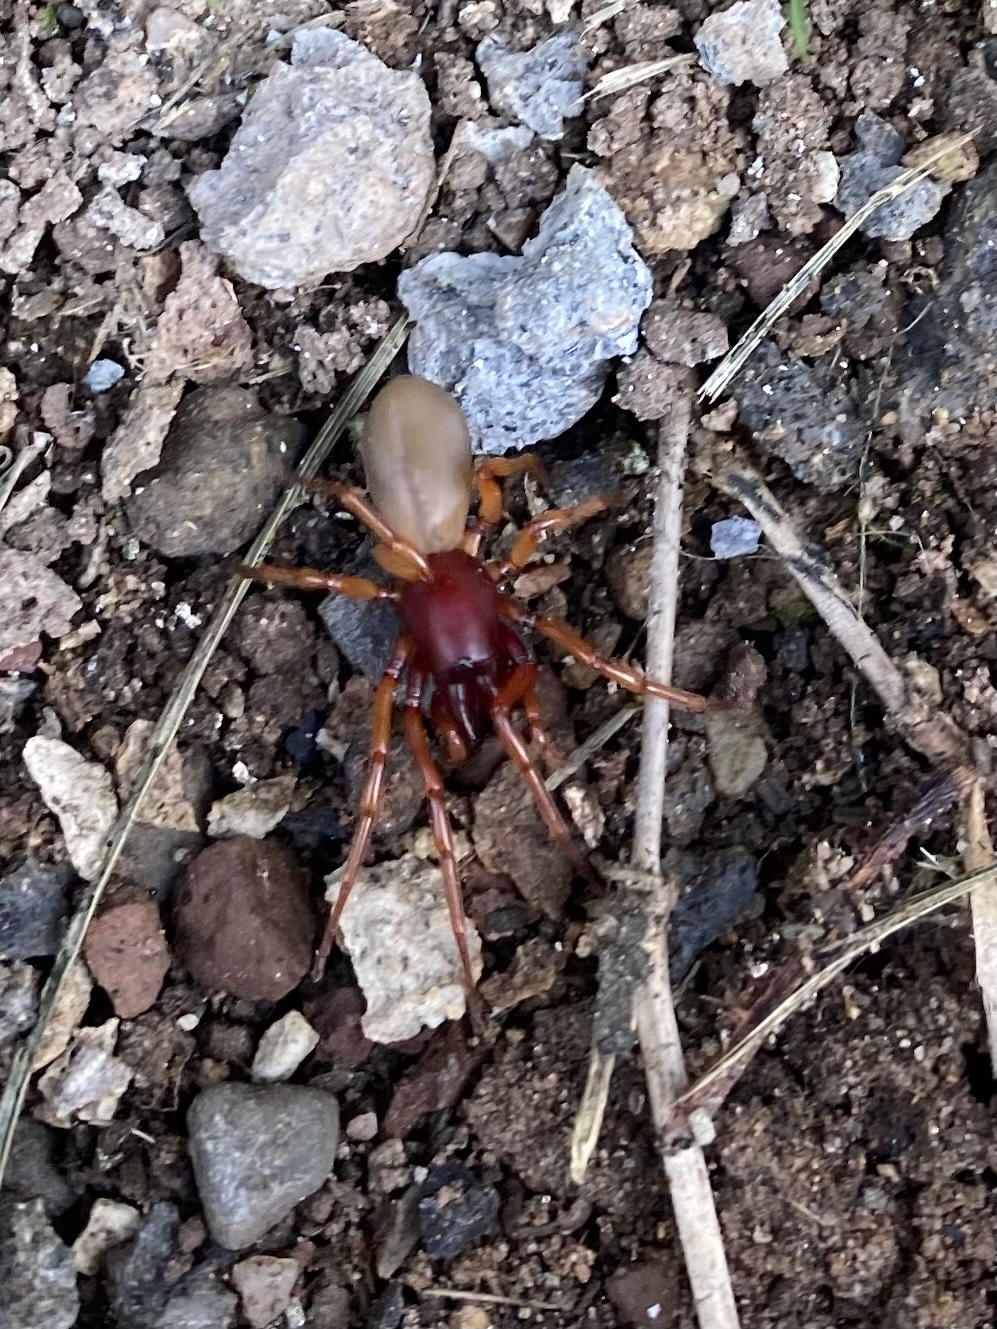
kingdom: Animalia
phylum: Arthropoda
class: Arachnida
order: Araneae
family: Dysderidae
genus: Dysdera
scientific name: Dysdera crocata
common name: Woodlouse spider
